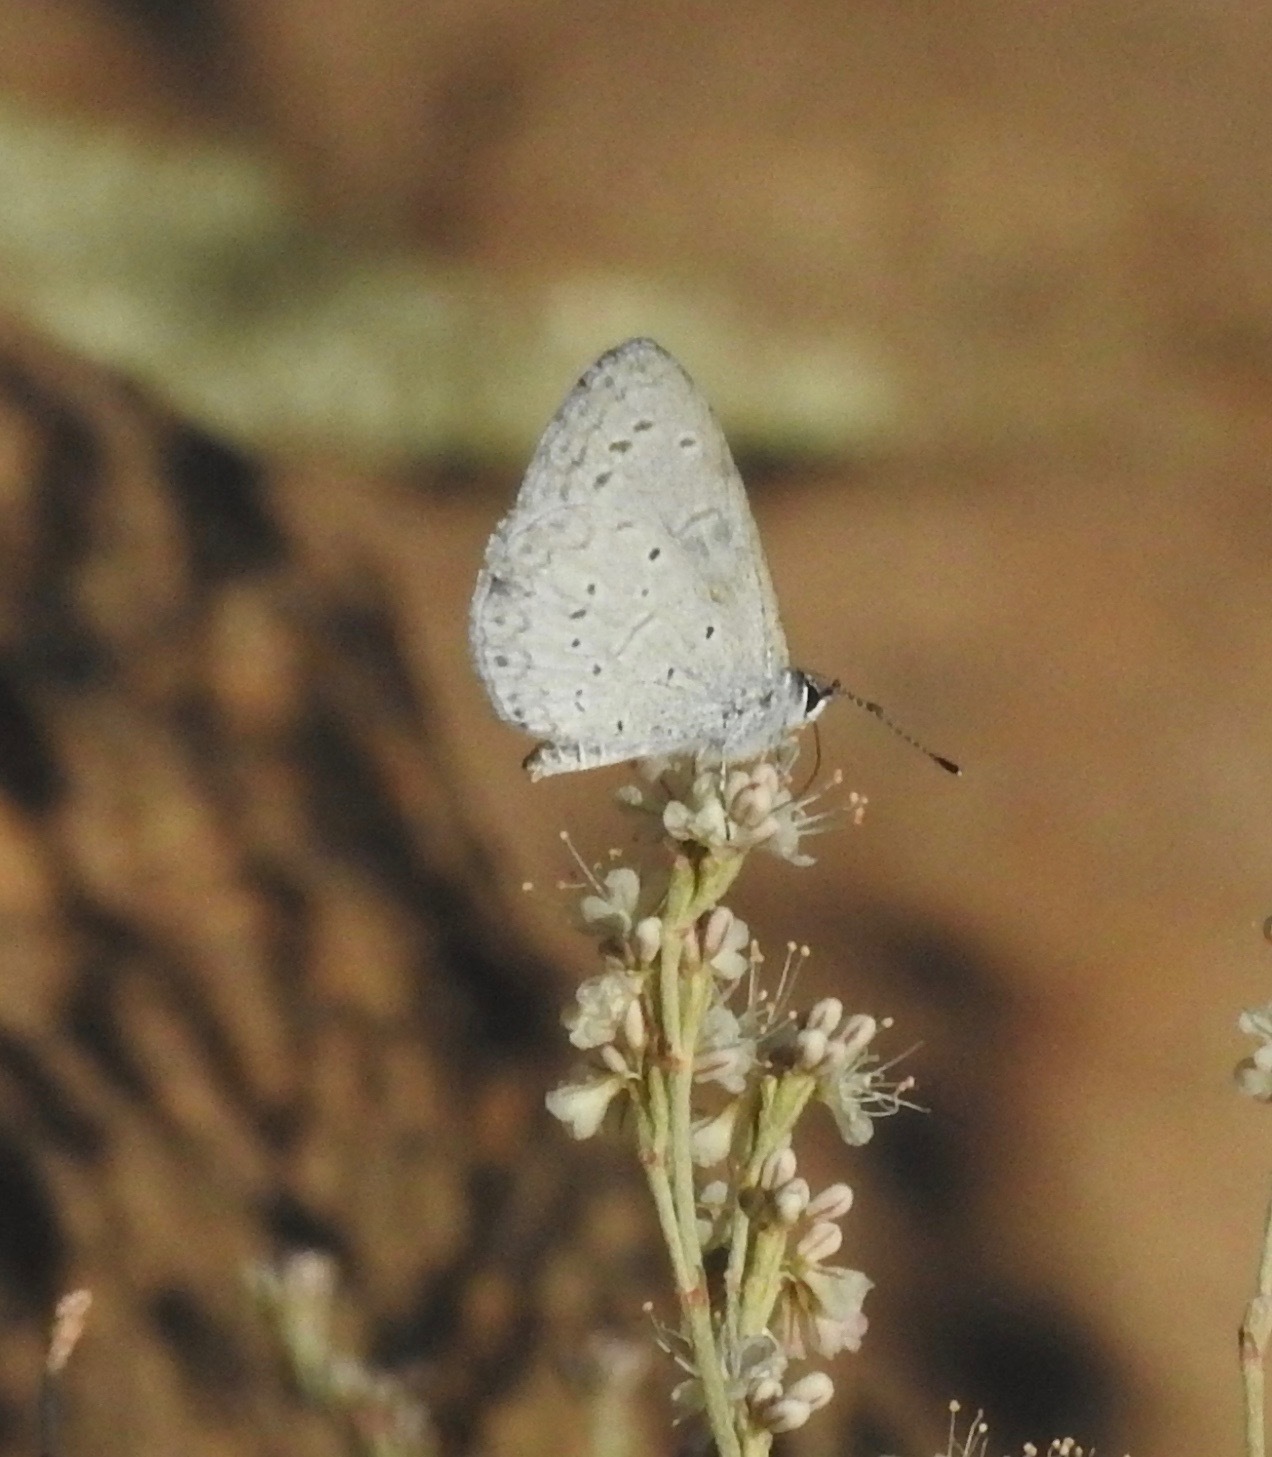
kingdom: Animalia
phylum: Arthropoda
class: Insecta
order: Lepidoptera
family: Lycaenidae
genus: Celastrina
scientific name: Celastrina ladon
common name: Spring azure
